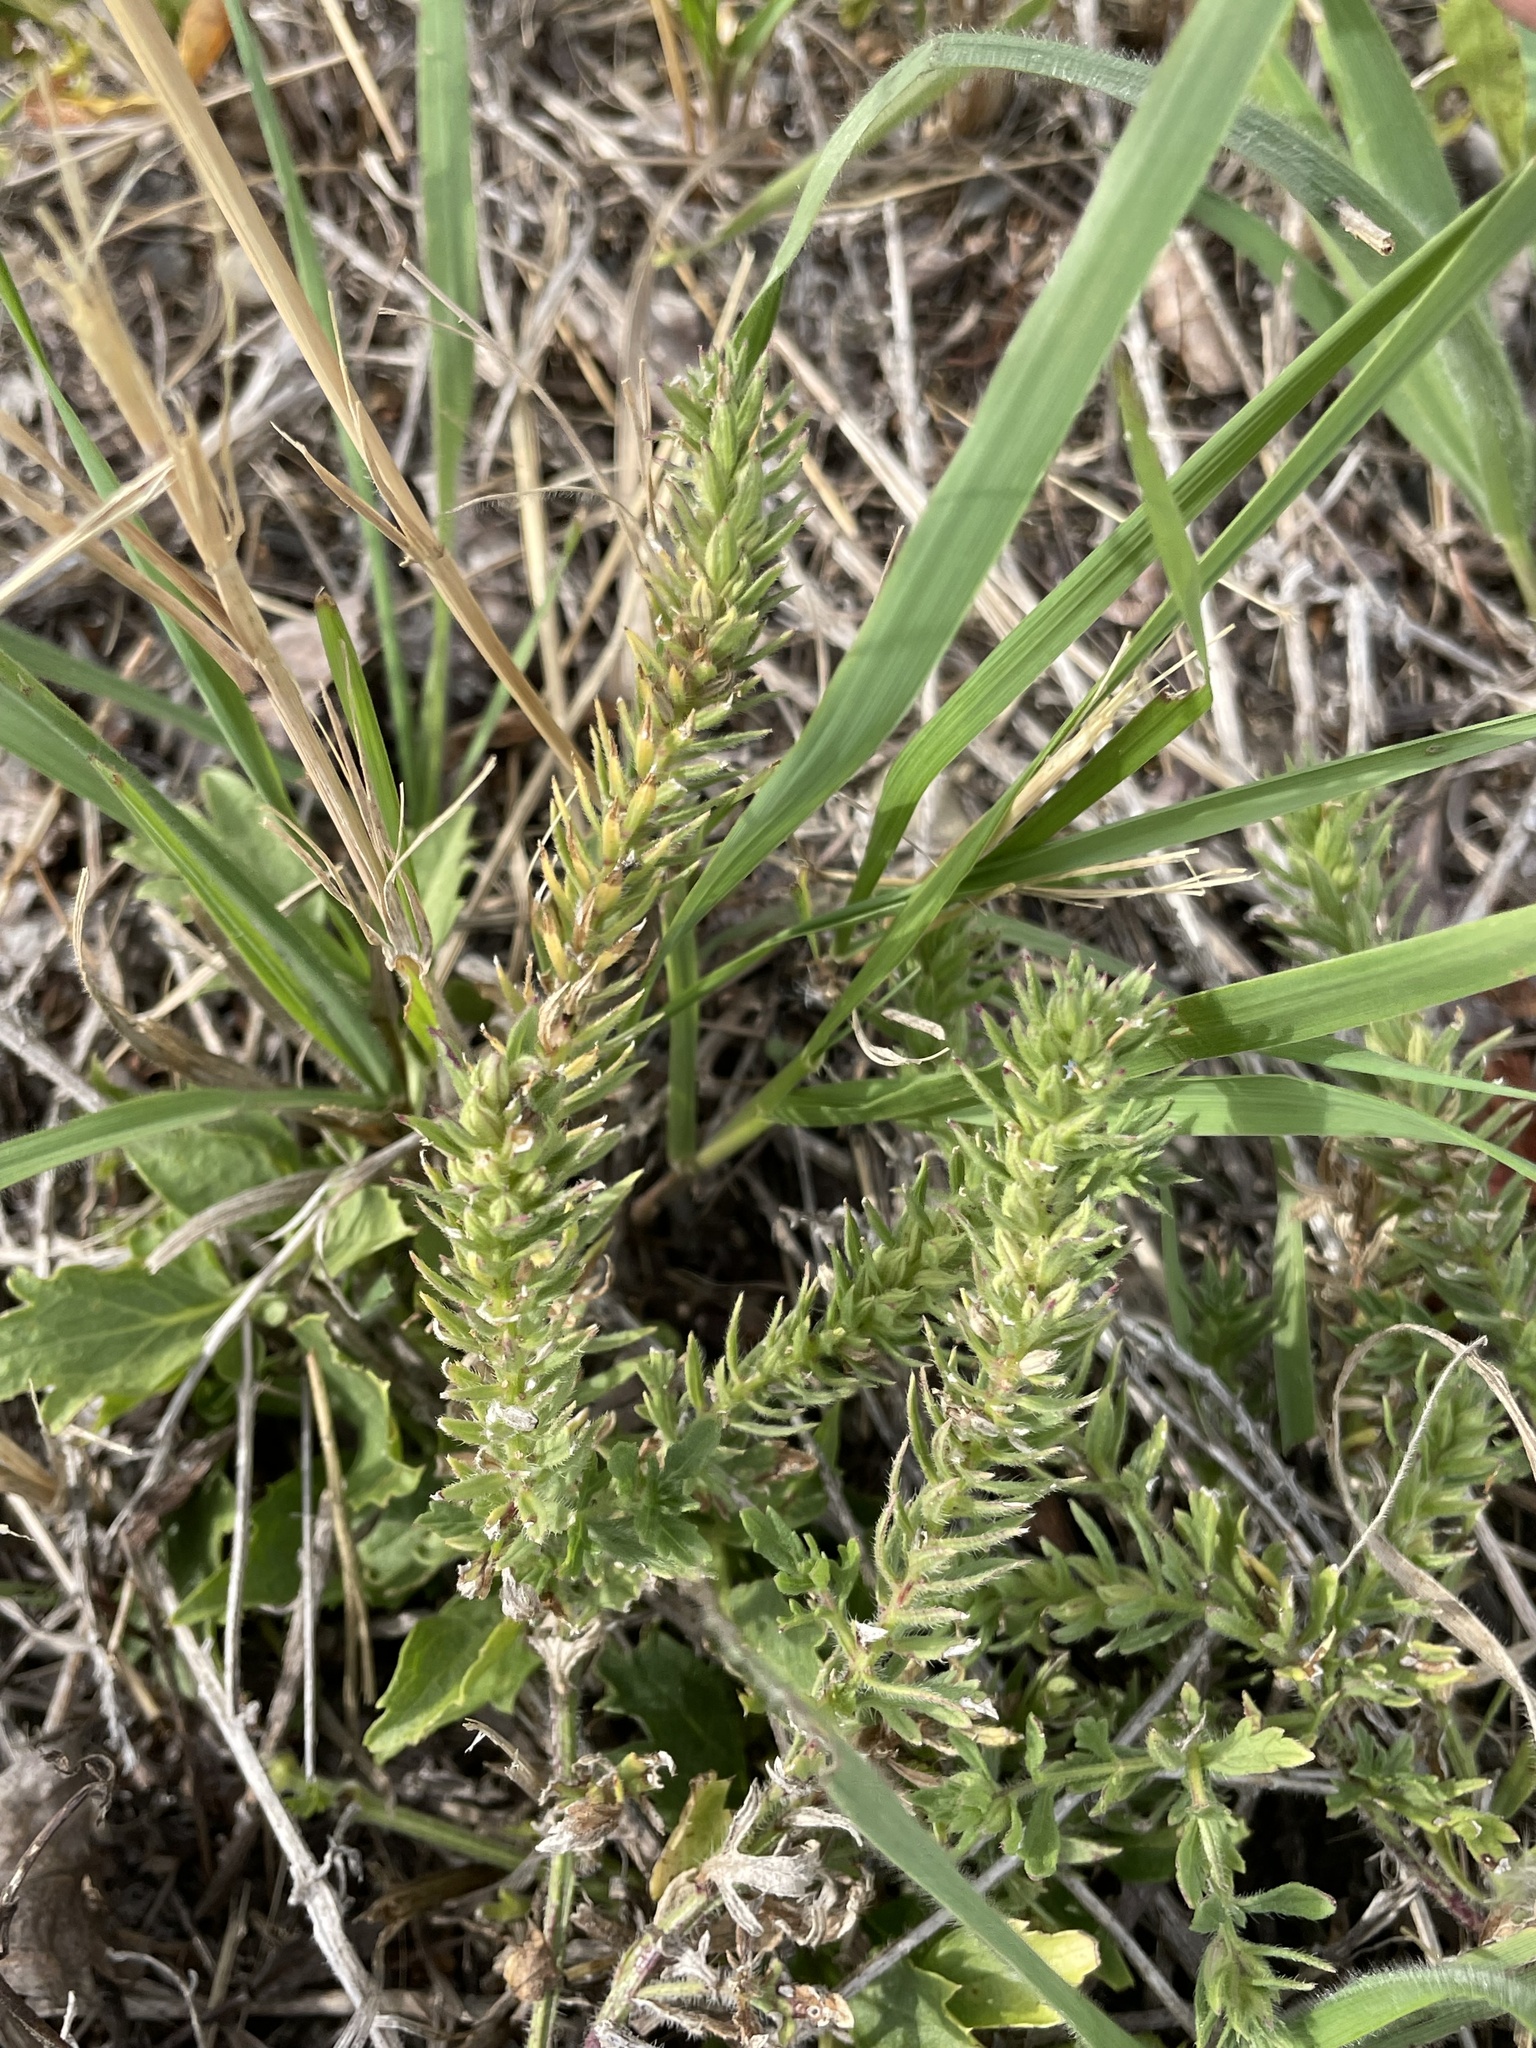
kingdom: Plantae
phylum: Tracheophyta
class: Magnoliopsida
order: Lamiales
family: Verbenaceae
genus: Verbena
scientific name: Verbena bracteata
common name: Bracted vervain
